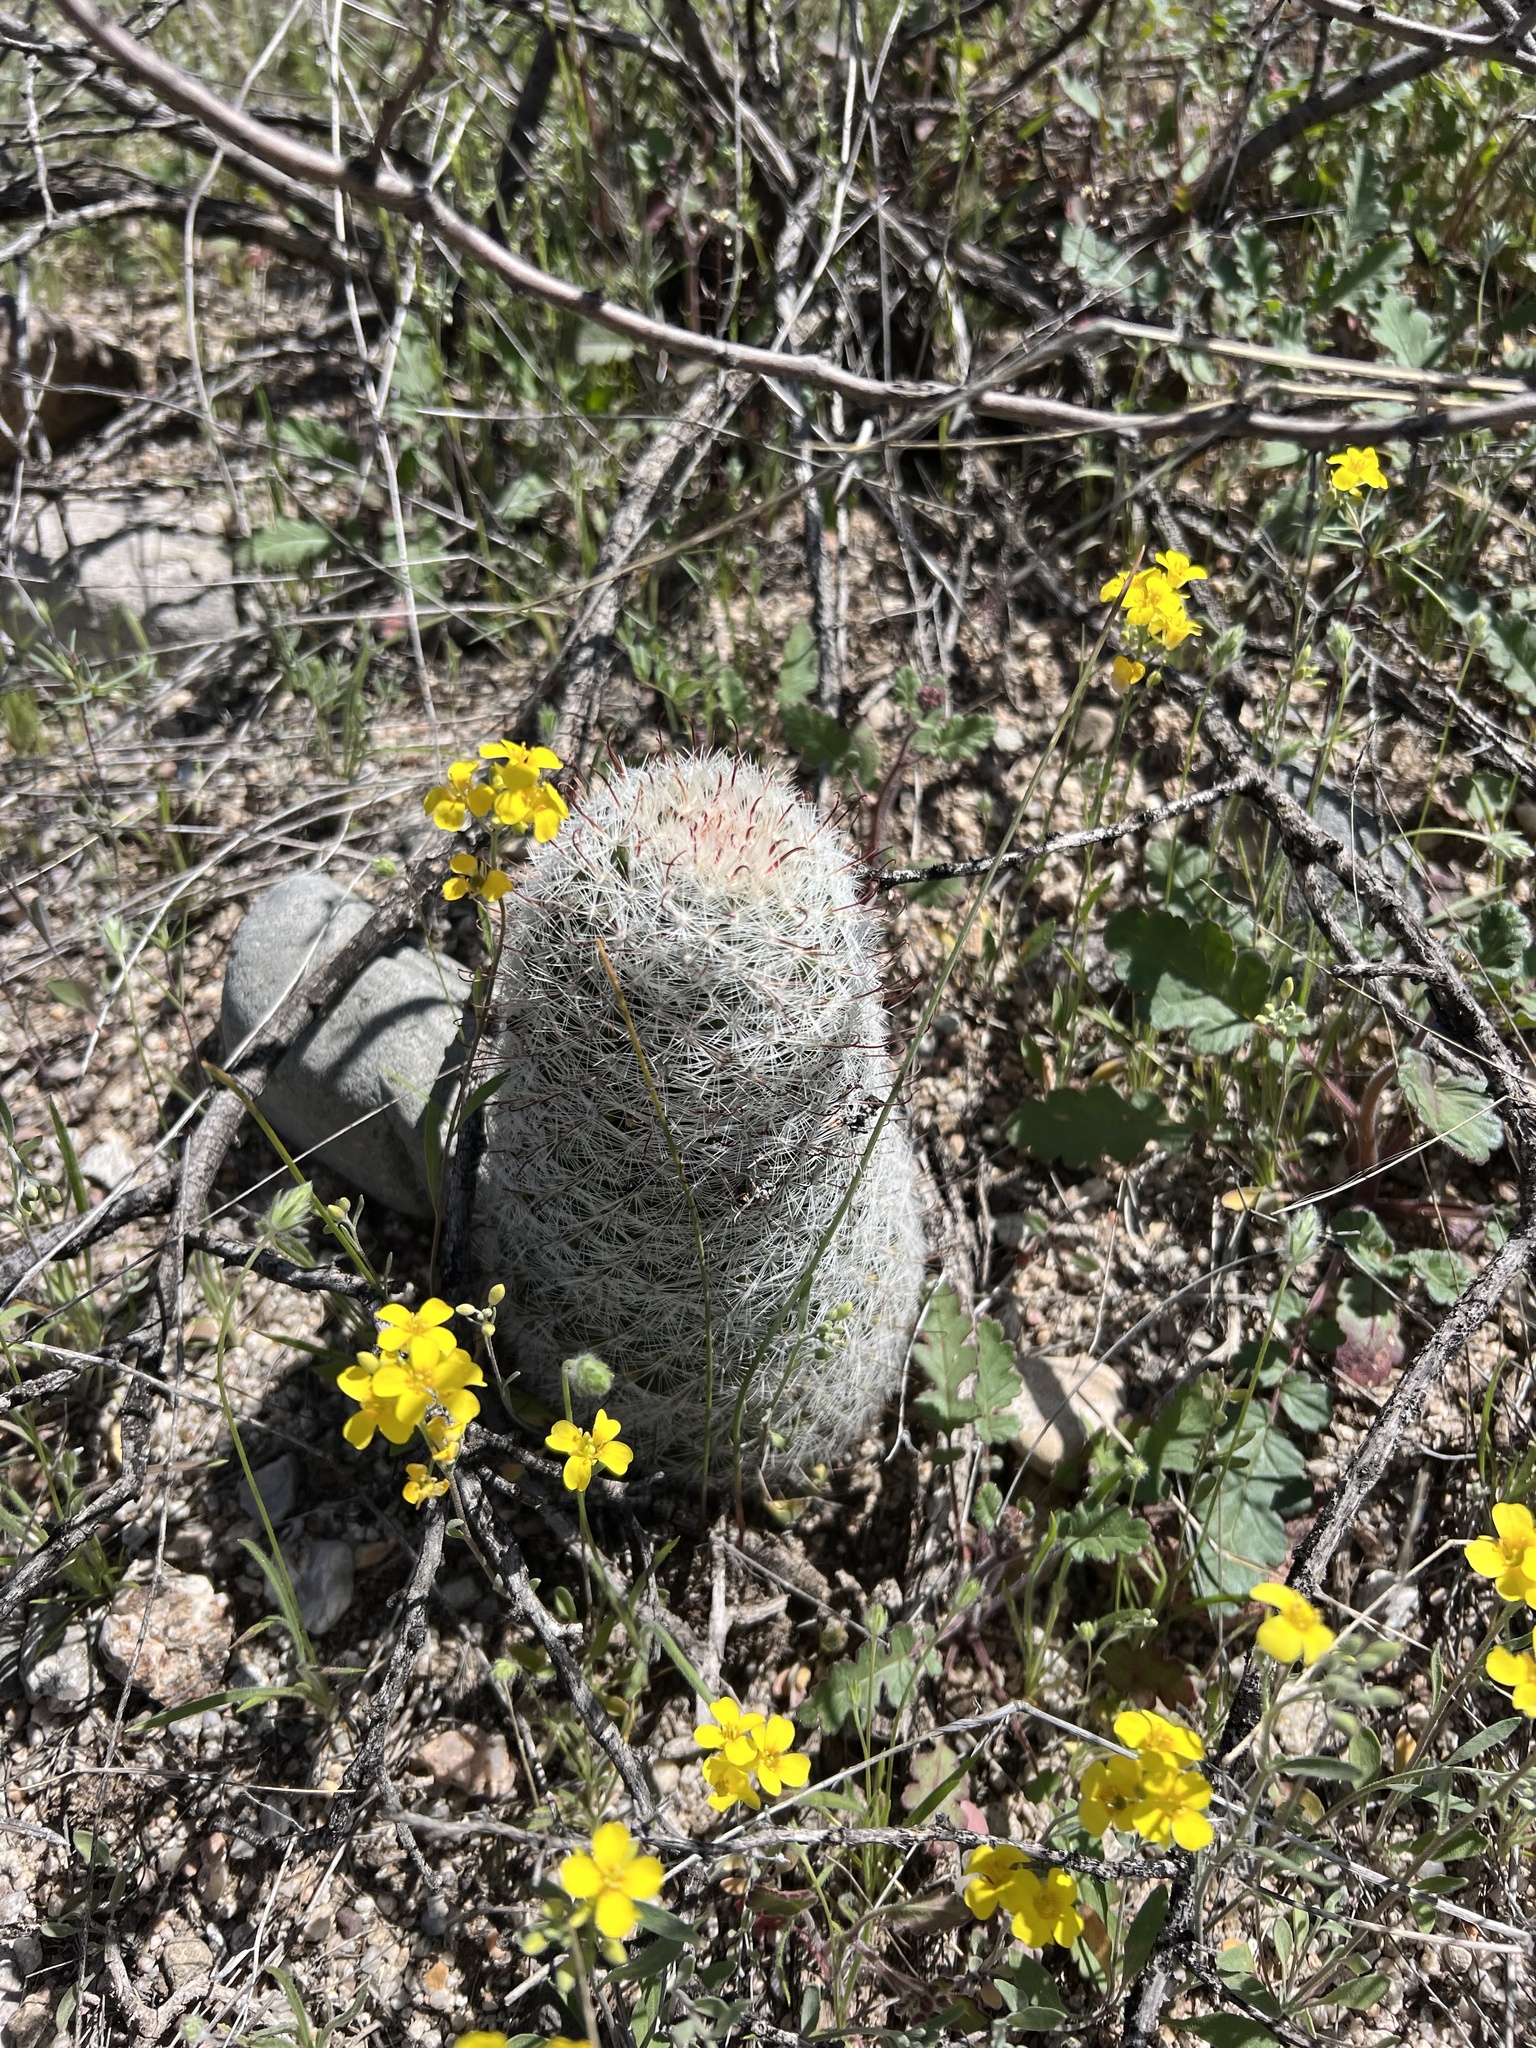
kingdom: Plantae
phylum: Tracheophyta
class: Magnoliopsida
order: Caryophyllales
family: Cactaceae
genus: Cochemiea
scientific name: Cochemiea grahamii
